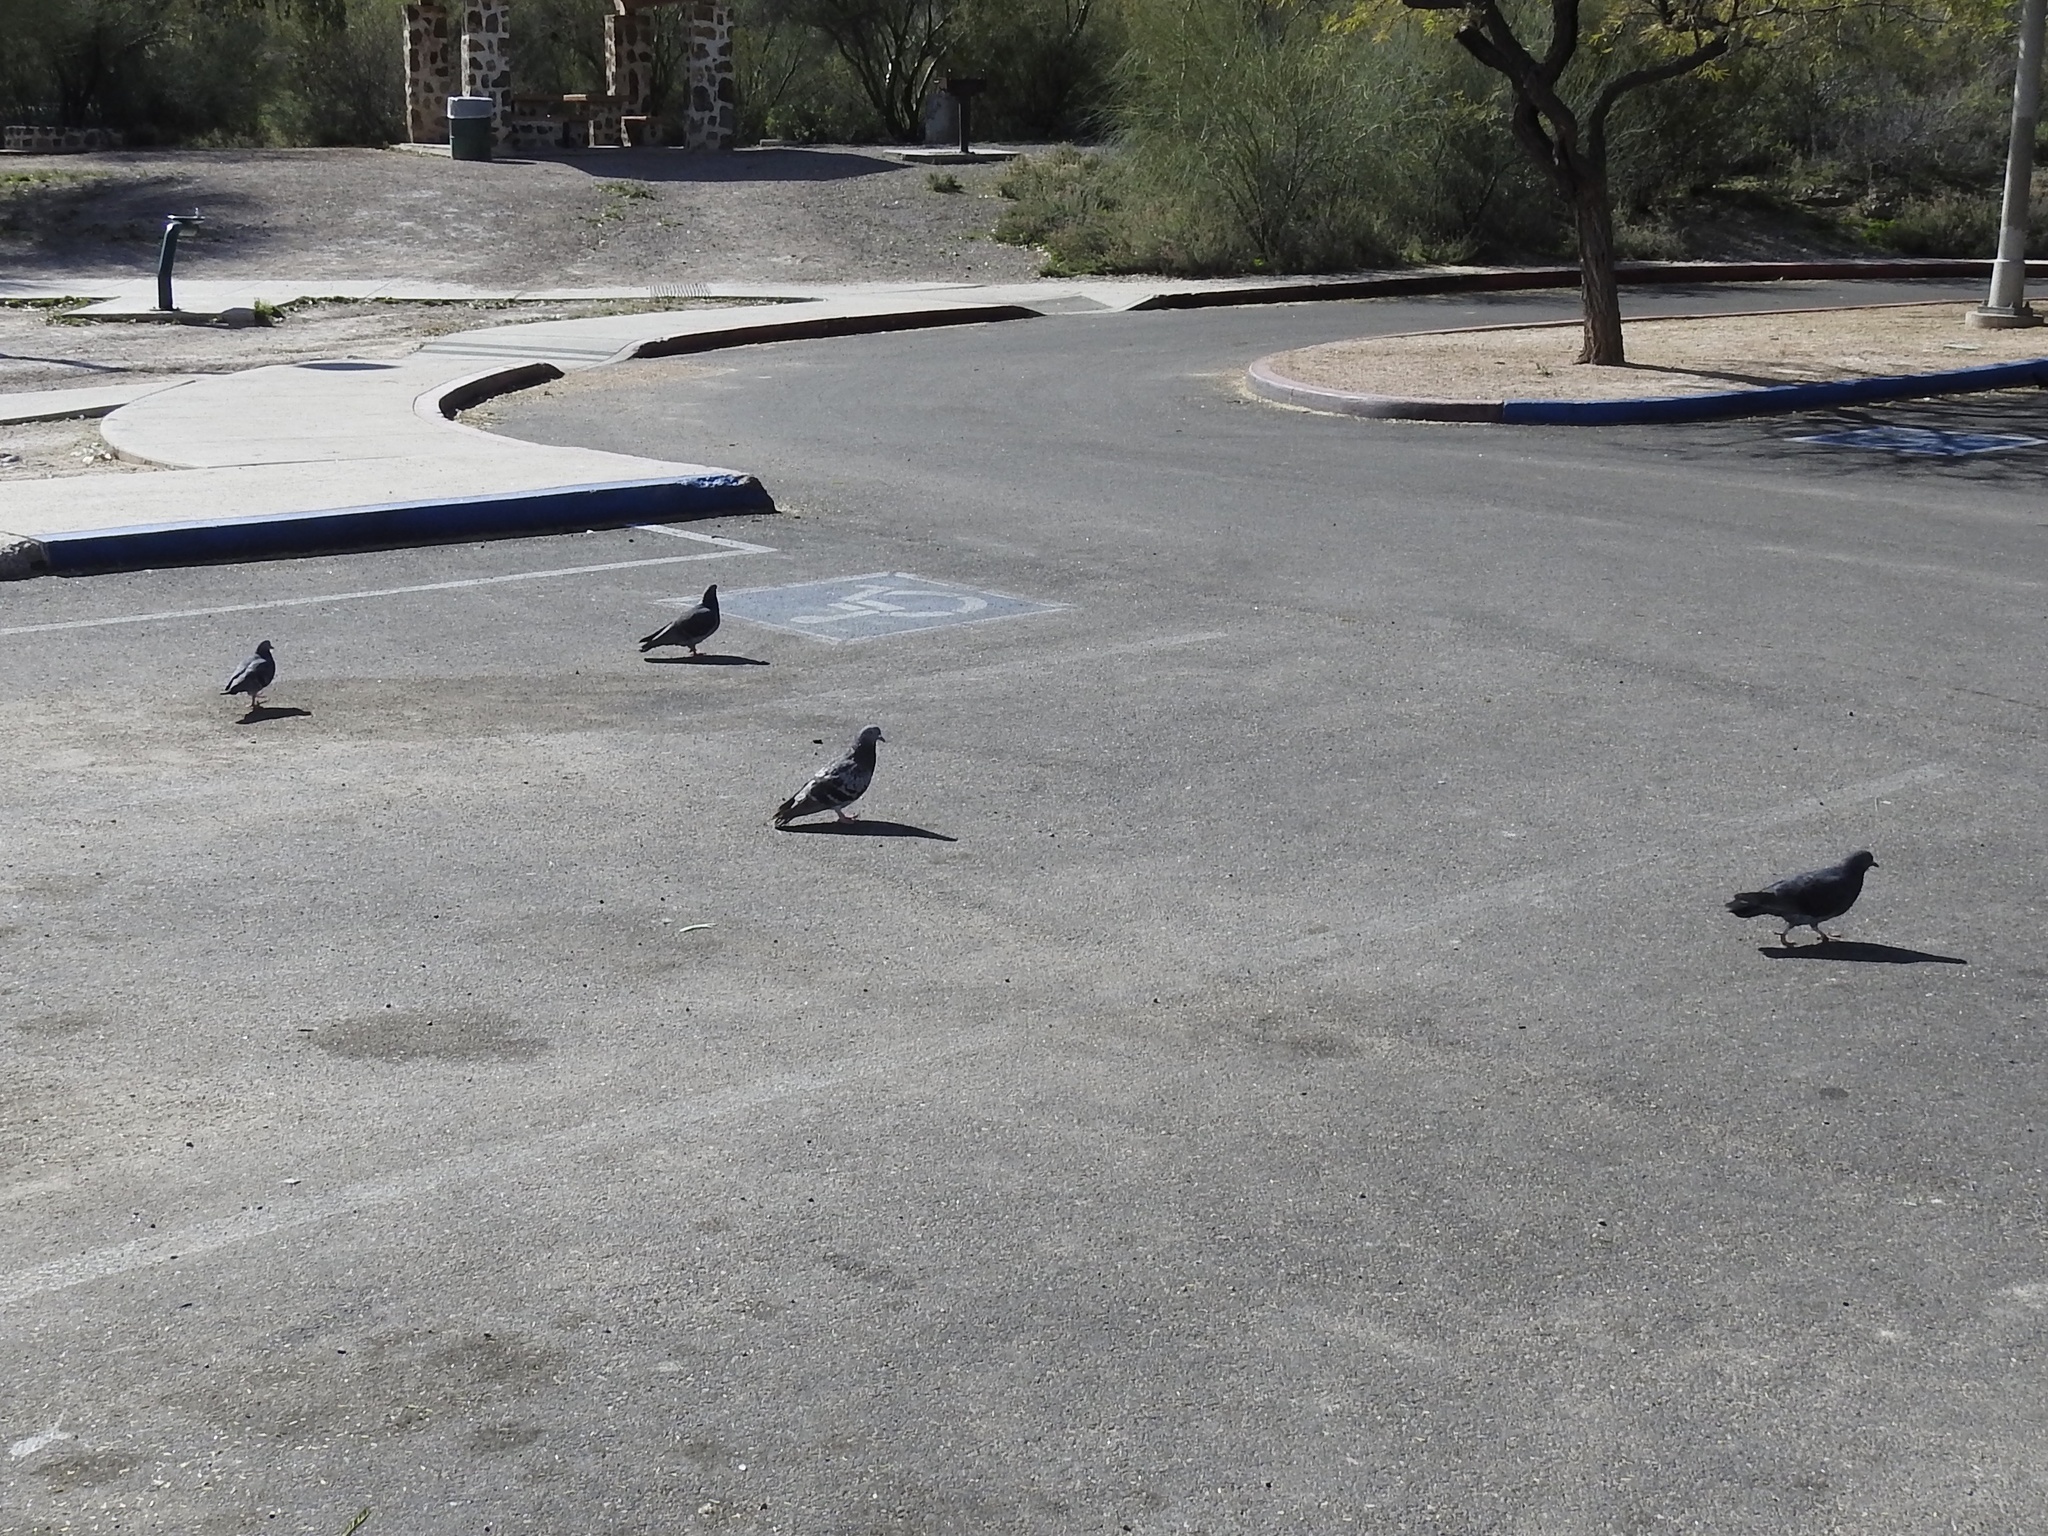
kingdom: Animalia
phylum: Chordata
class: Aves
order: Columbiformes
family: Columbidae
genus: Columba
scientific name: Columba livia
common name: Rock pigeon
